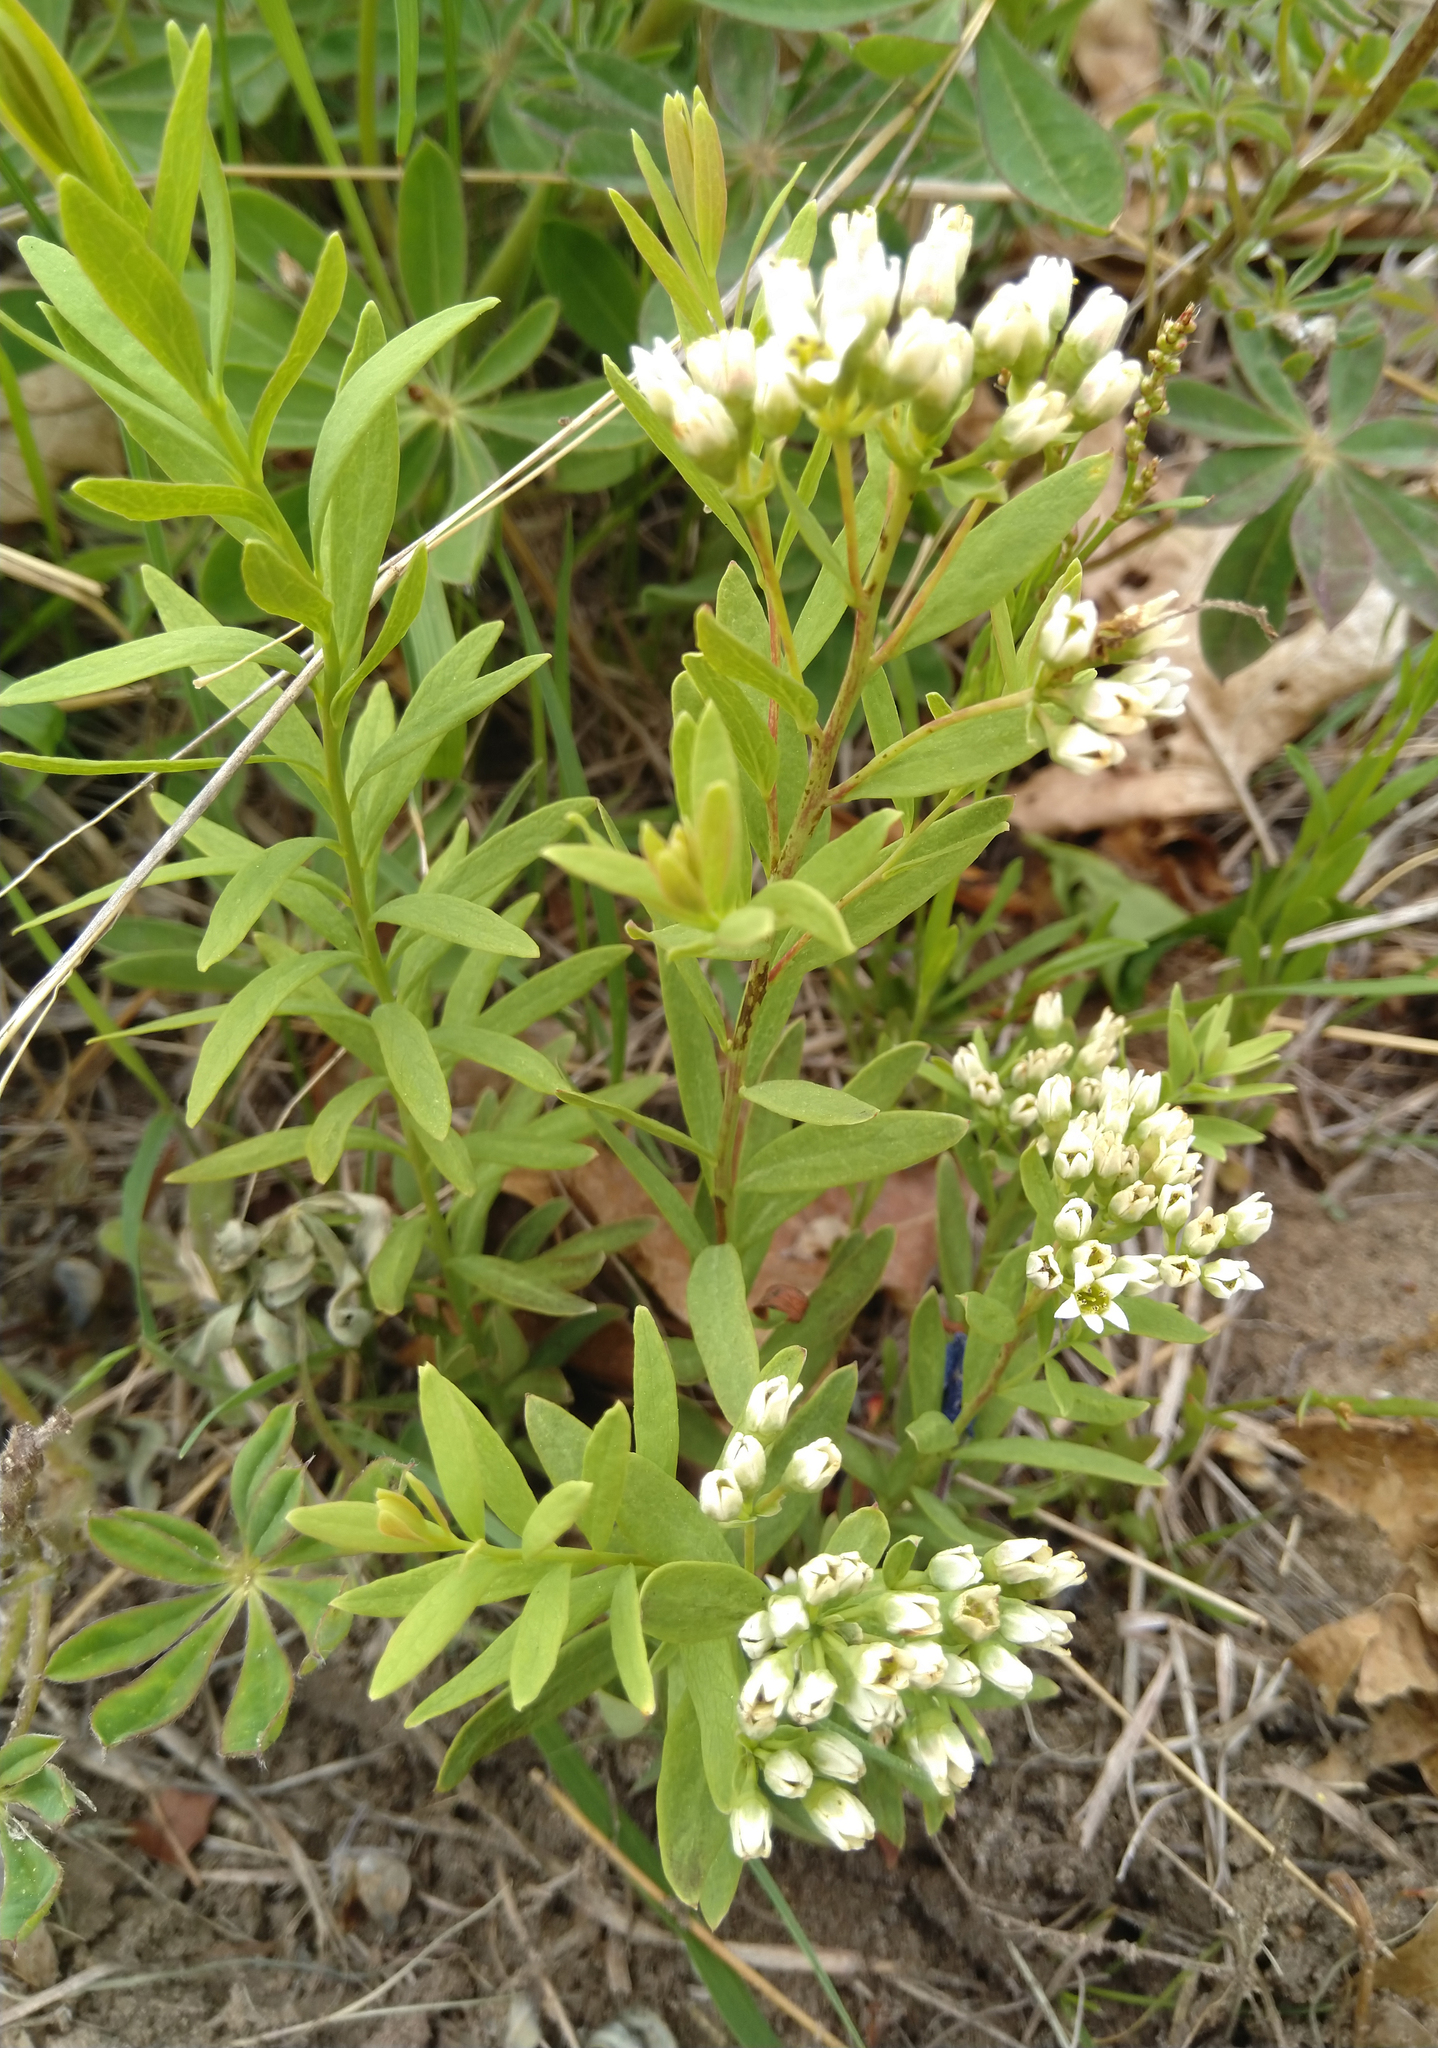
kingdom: Plantae
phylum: Tracheophyta
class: Magnoliopsida
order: Santalales
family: Comandraceae
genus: Comandra
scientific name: Comandra umbellata
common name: Bastard toadflax
